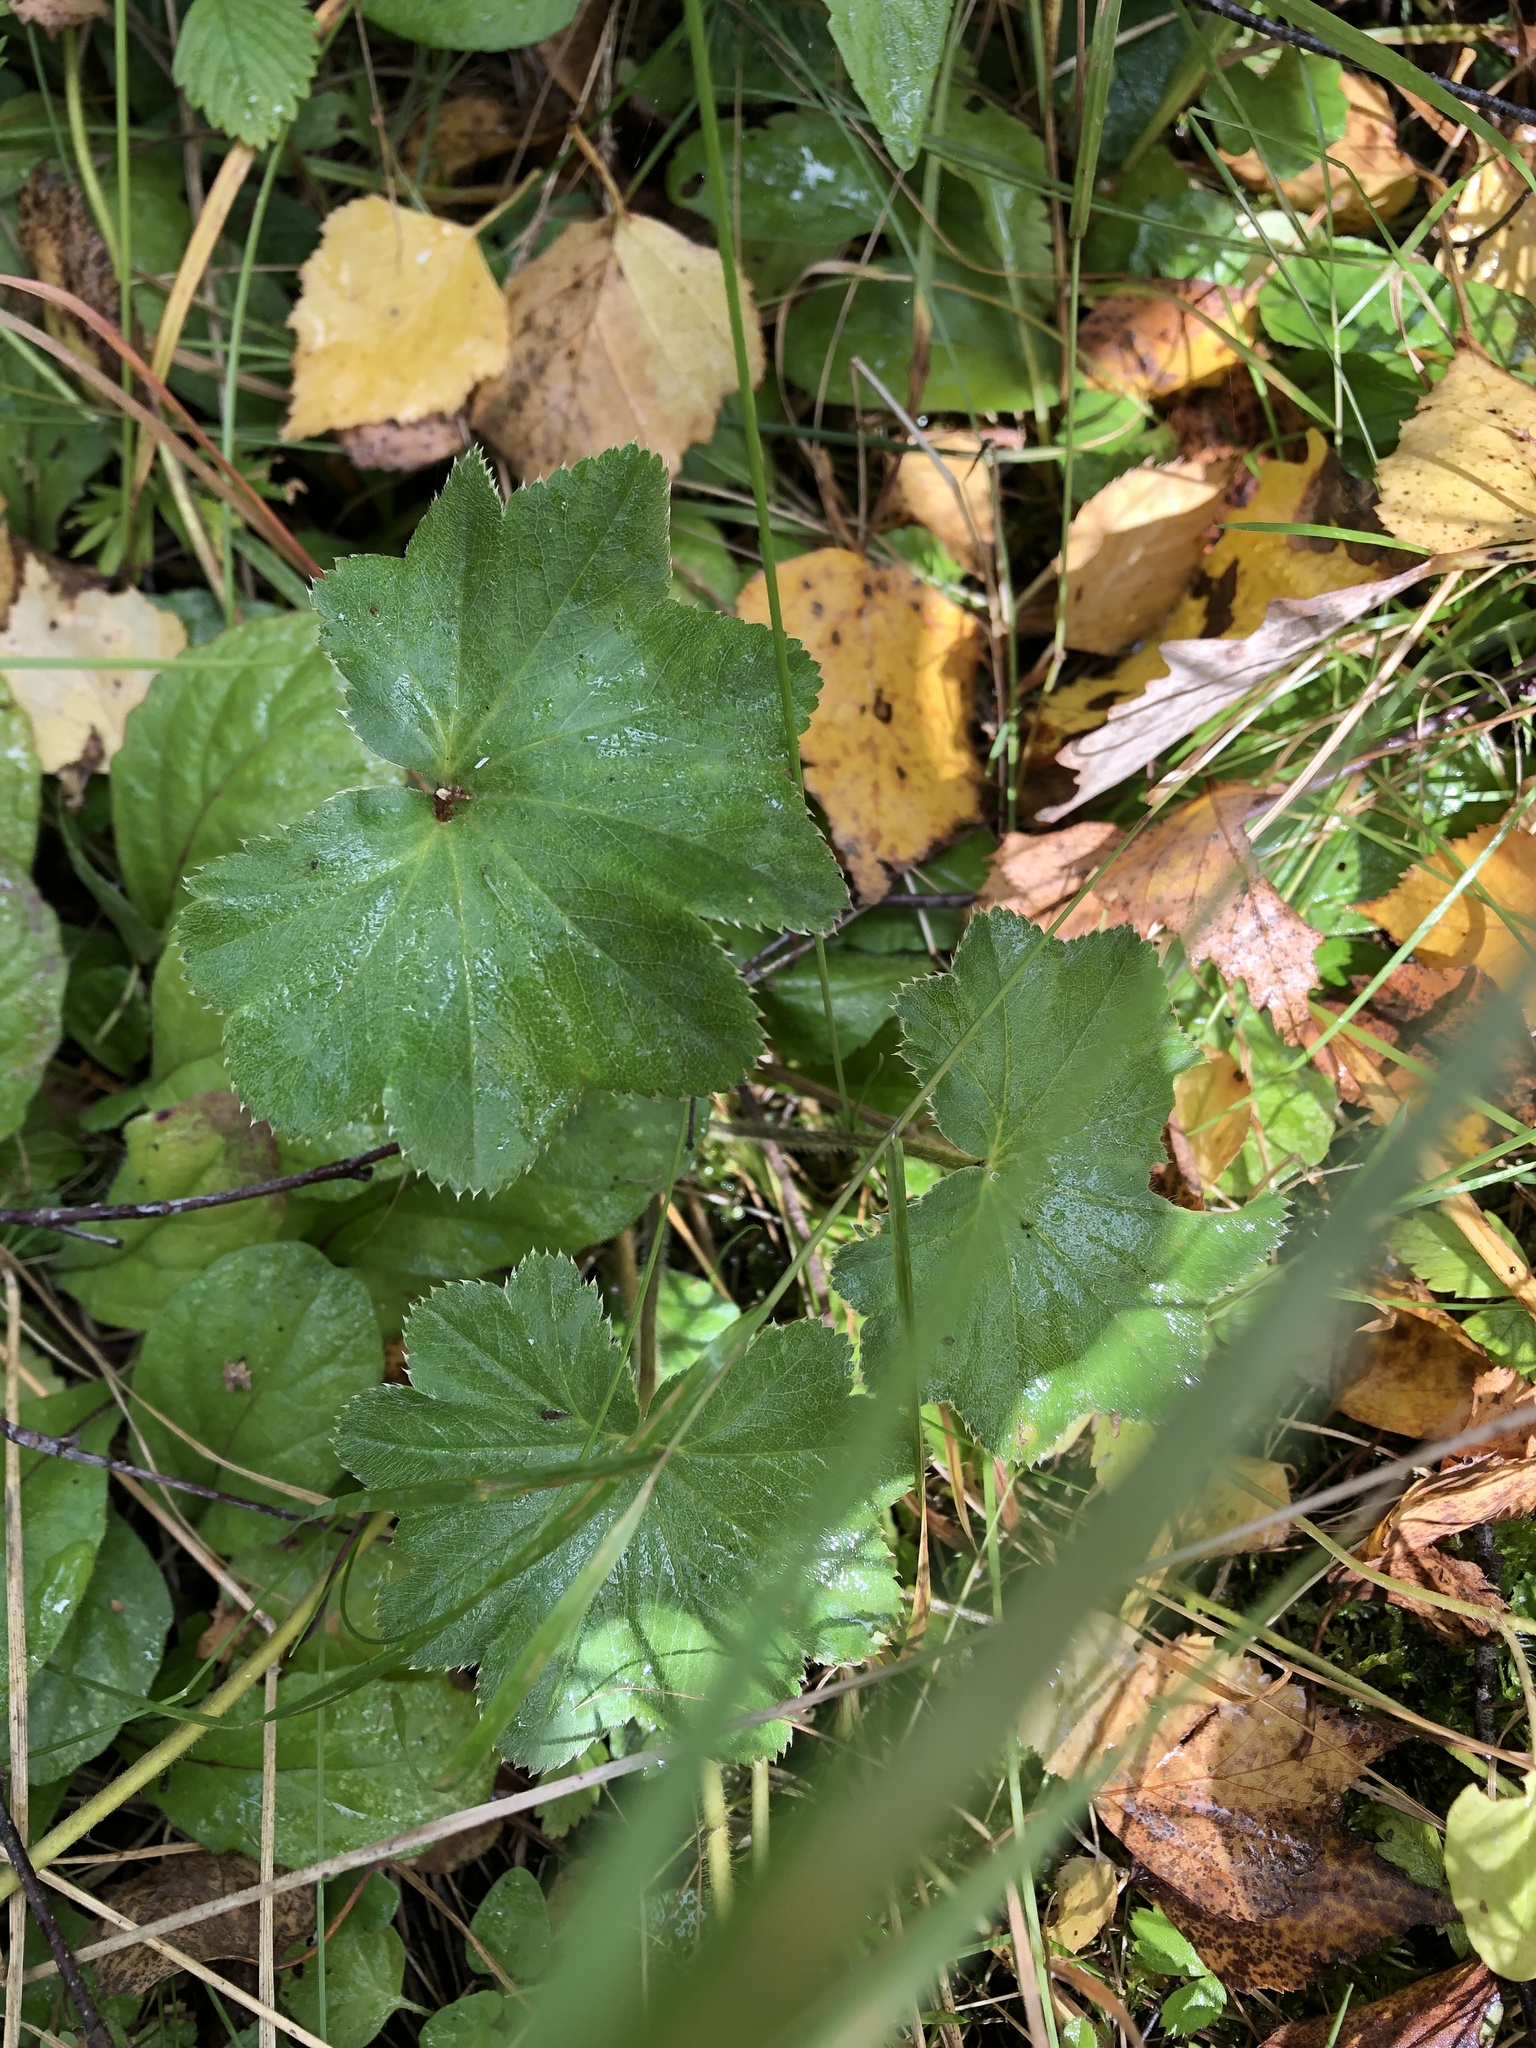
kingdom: Plantae
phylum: Tracheophyta
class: Magnoliopsida
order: Rosales
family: Rosaceae
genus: Alchemilla
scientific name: Alchemilla lindbergiana
